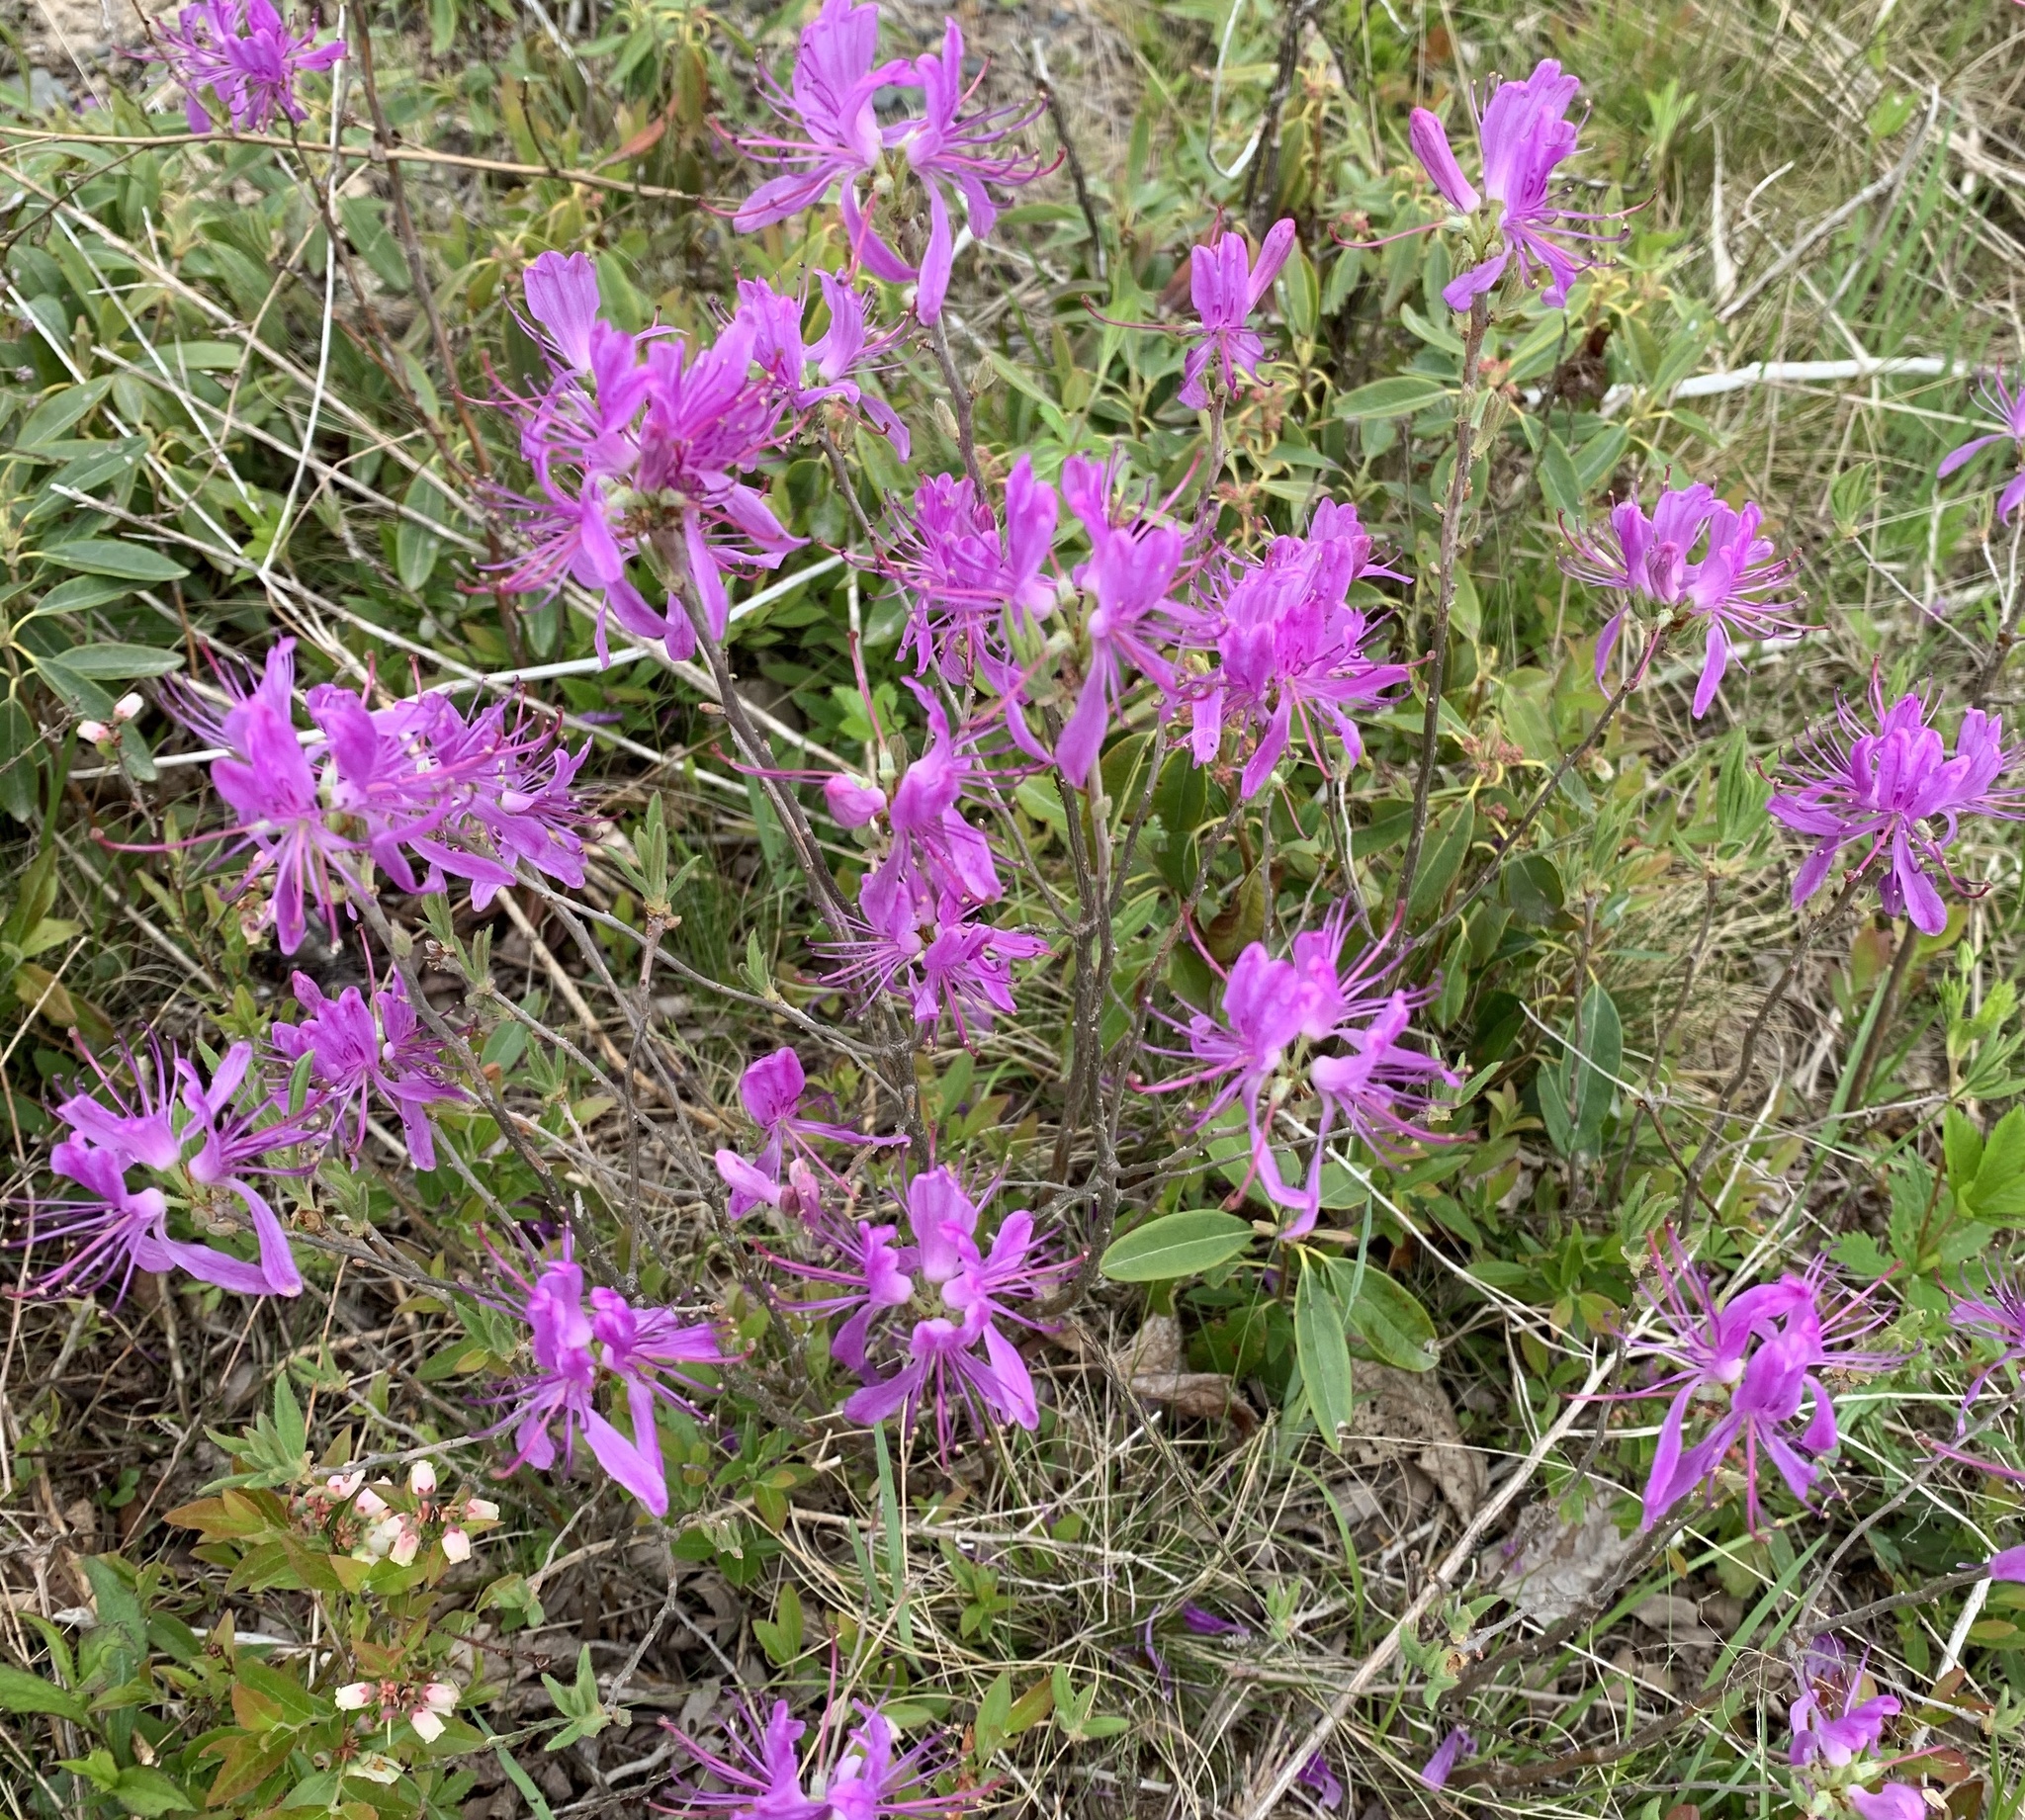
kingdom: Plantae
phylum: Tracheophyta
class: Magnoliopsida
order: Ericales
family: Ericaceae
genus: Rhododendron
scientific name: Rhododendron canadense
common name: Rhodora
